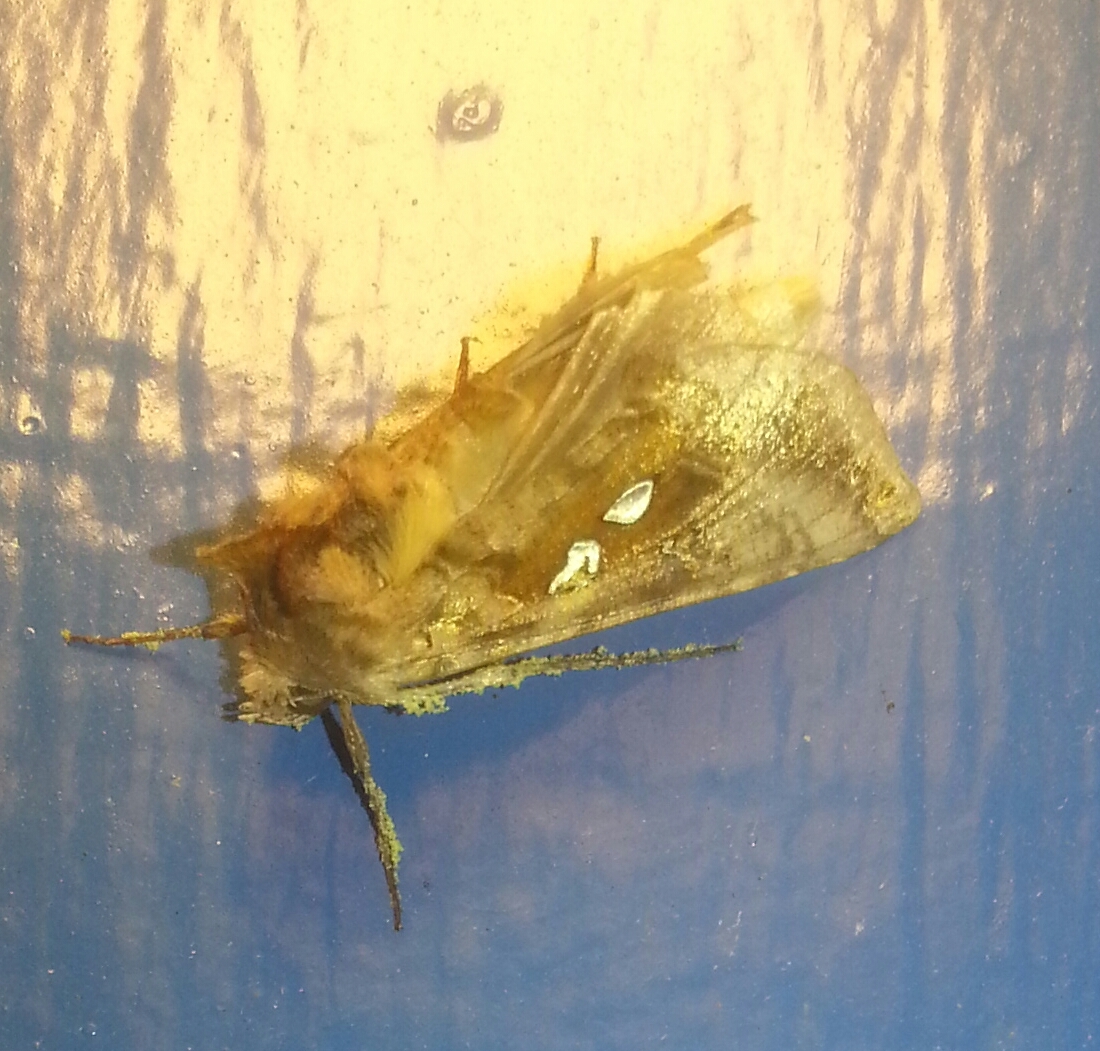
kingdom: Animalia
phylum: Arthropoda
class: Insecta
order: Lepidoptera
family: Noctuidae
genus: Autographa
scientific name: Autographa bimaculata
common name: Double-spotted spangle
